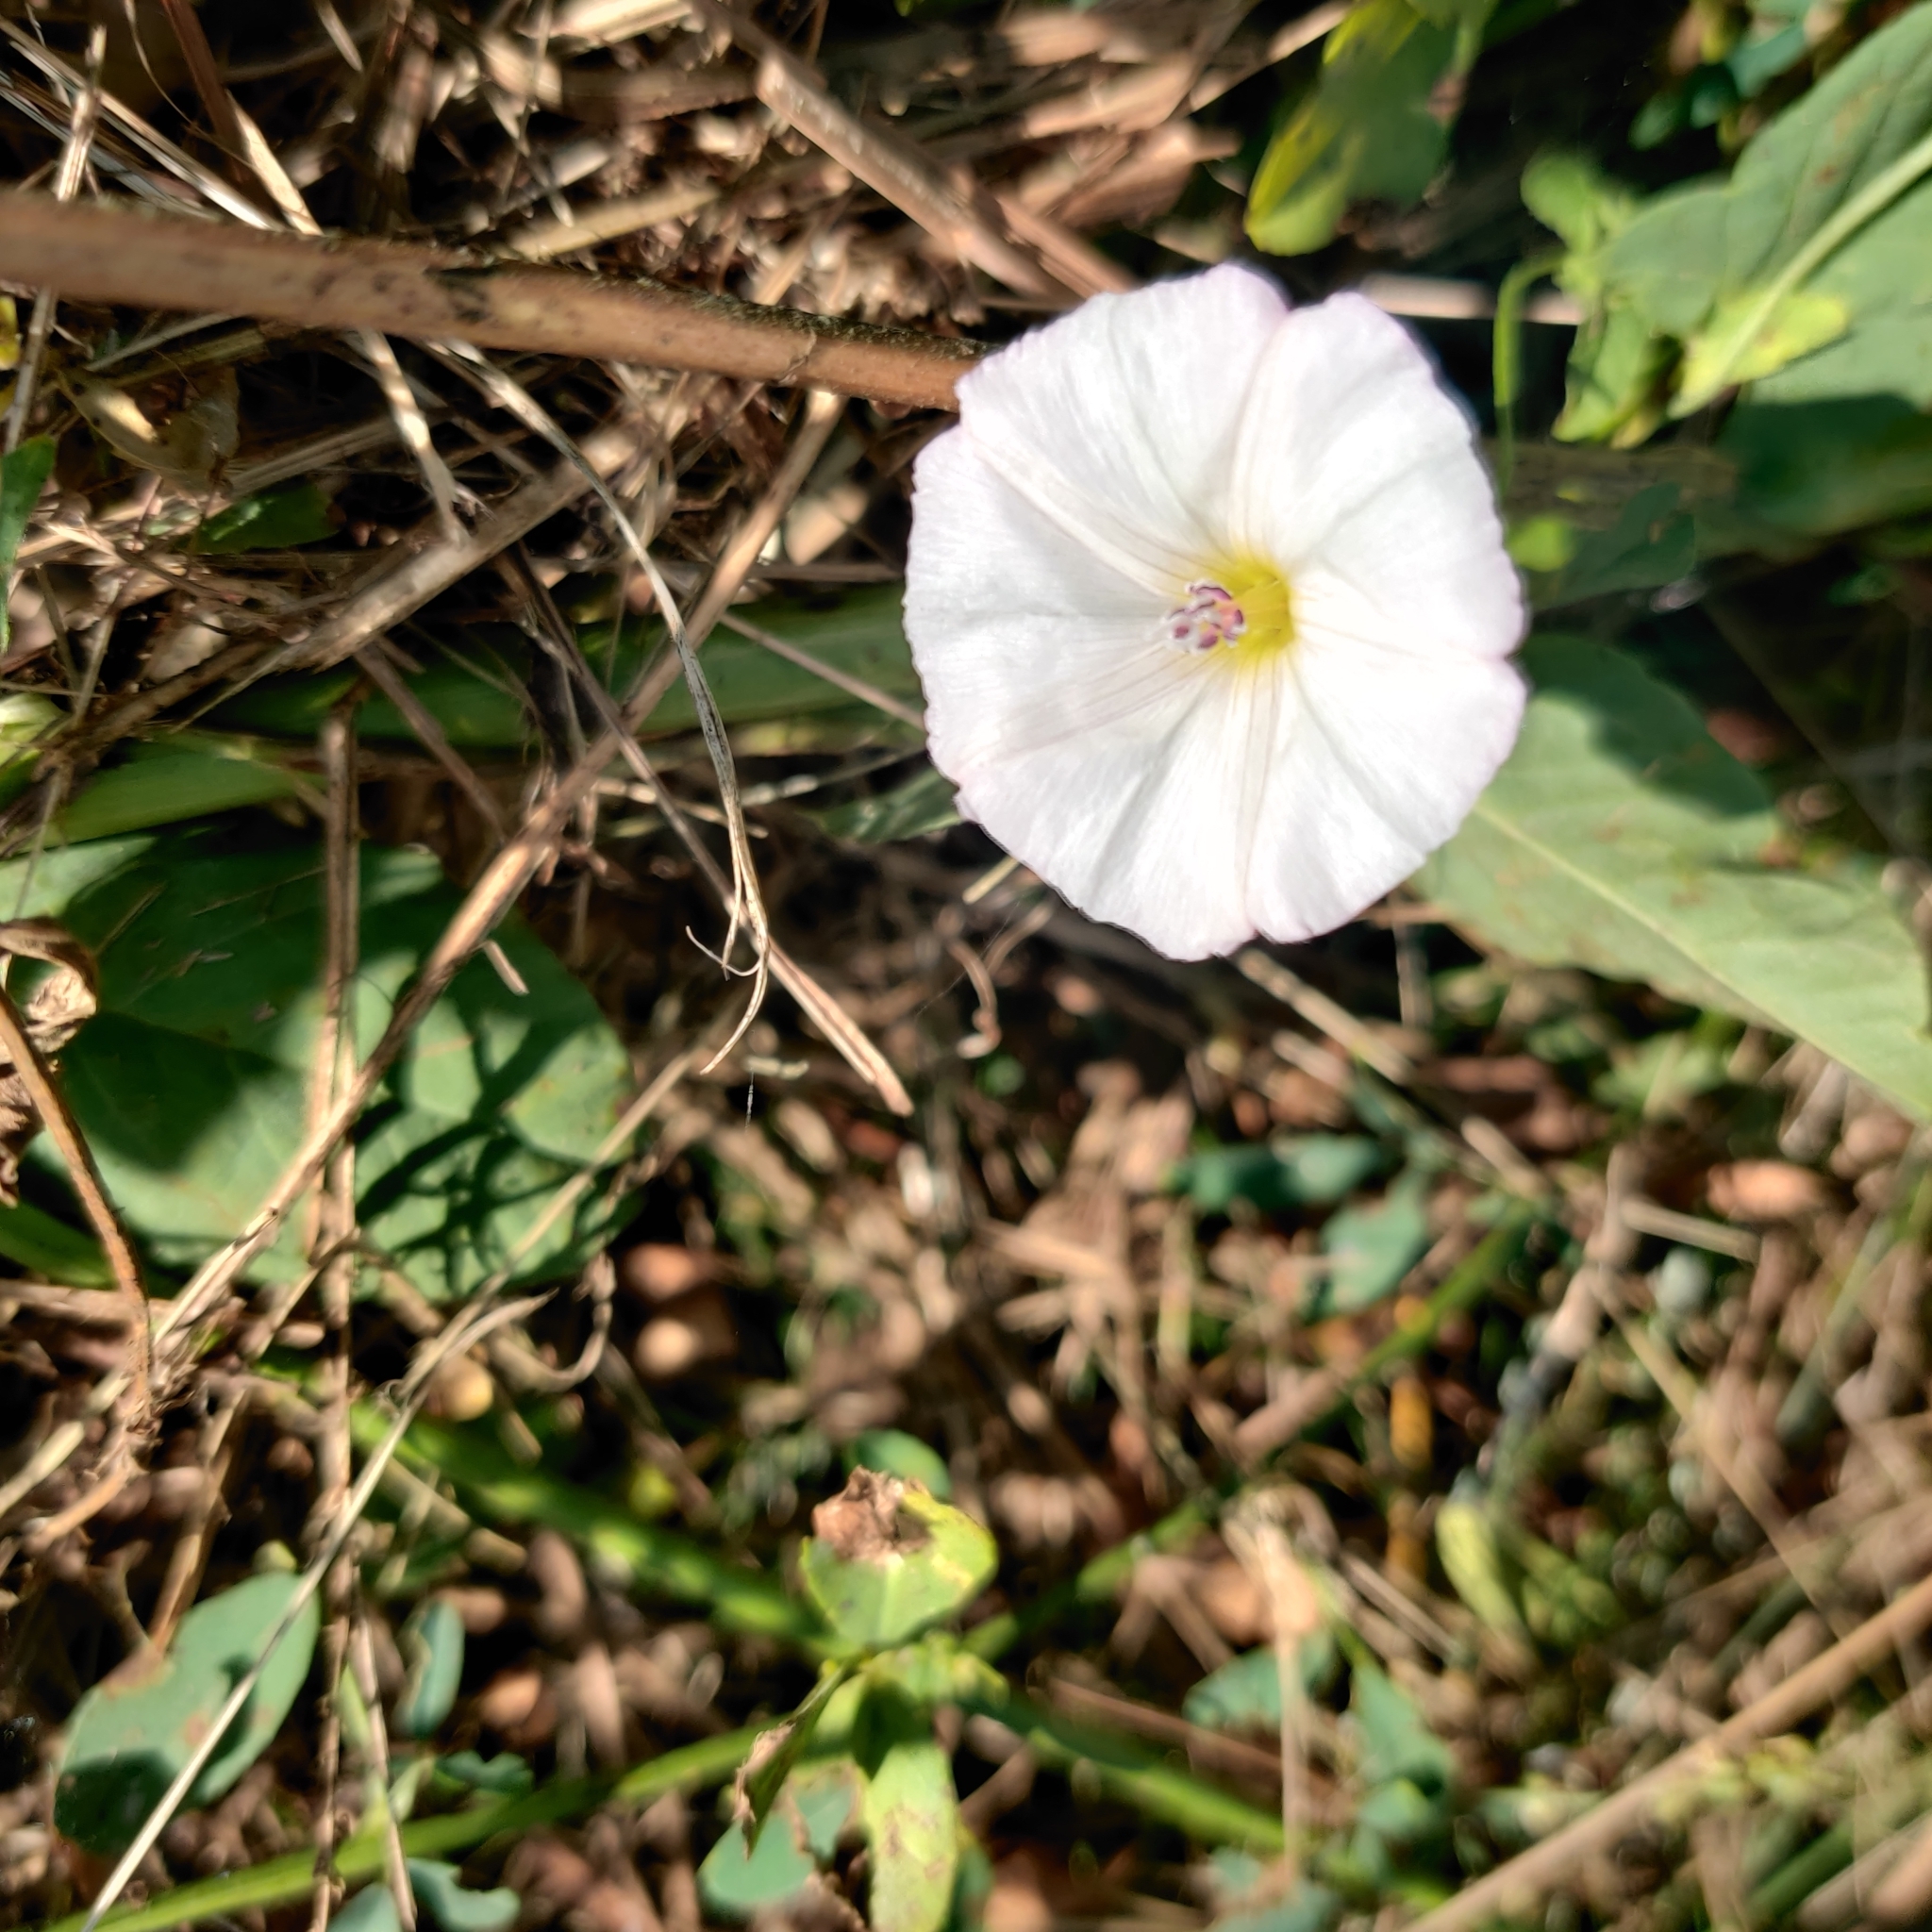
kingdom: Plantae
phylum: Tracheophyta
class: Magnoliopsida
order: Solanales
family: Convolvulaceae
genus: Convolvulus
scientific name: Convolvulus arvensis
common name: Field bindweed
